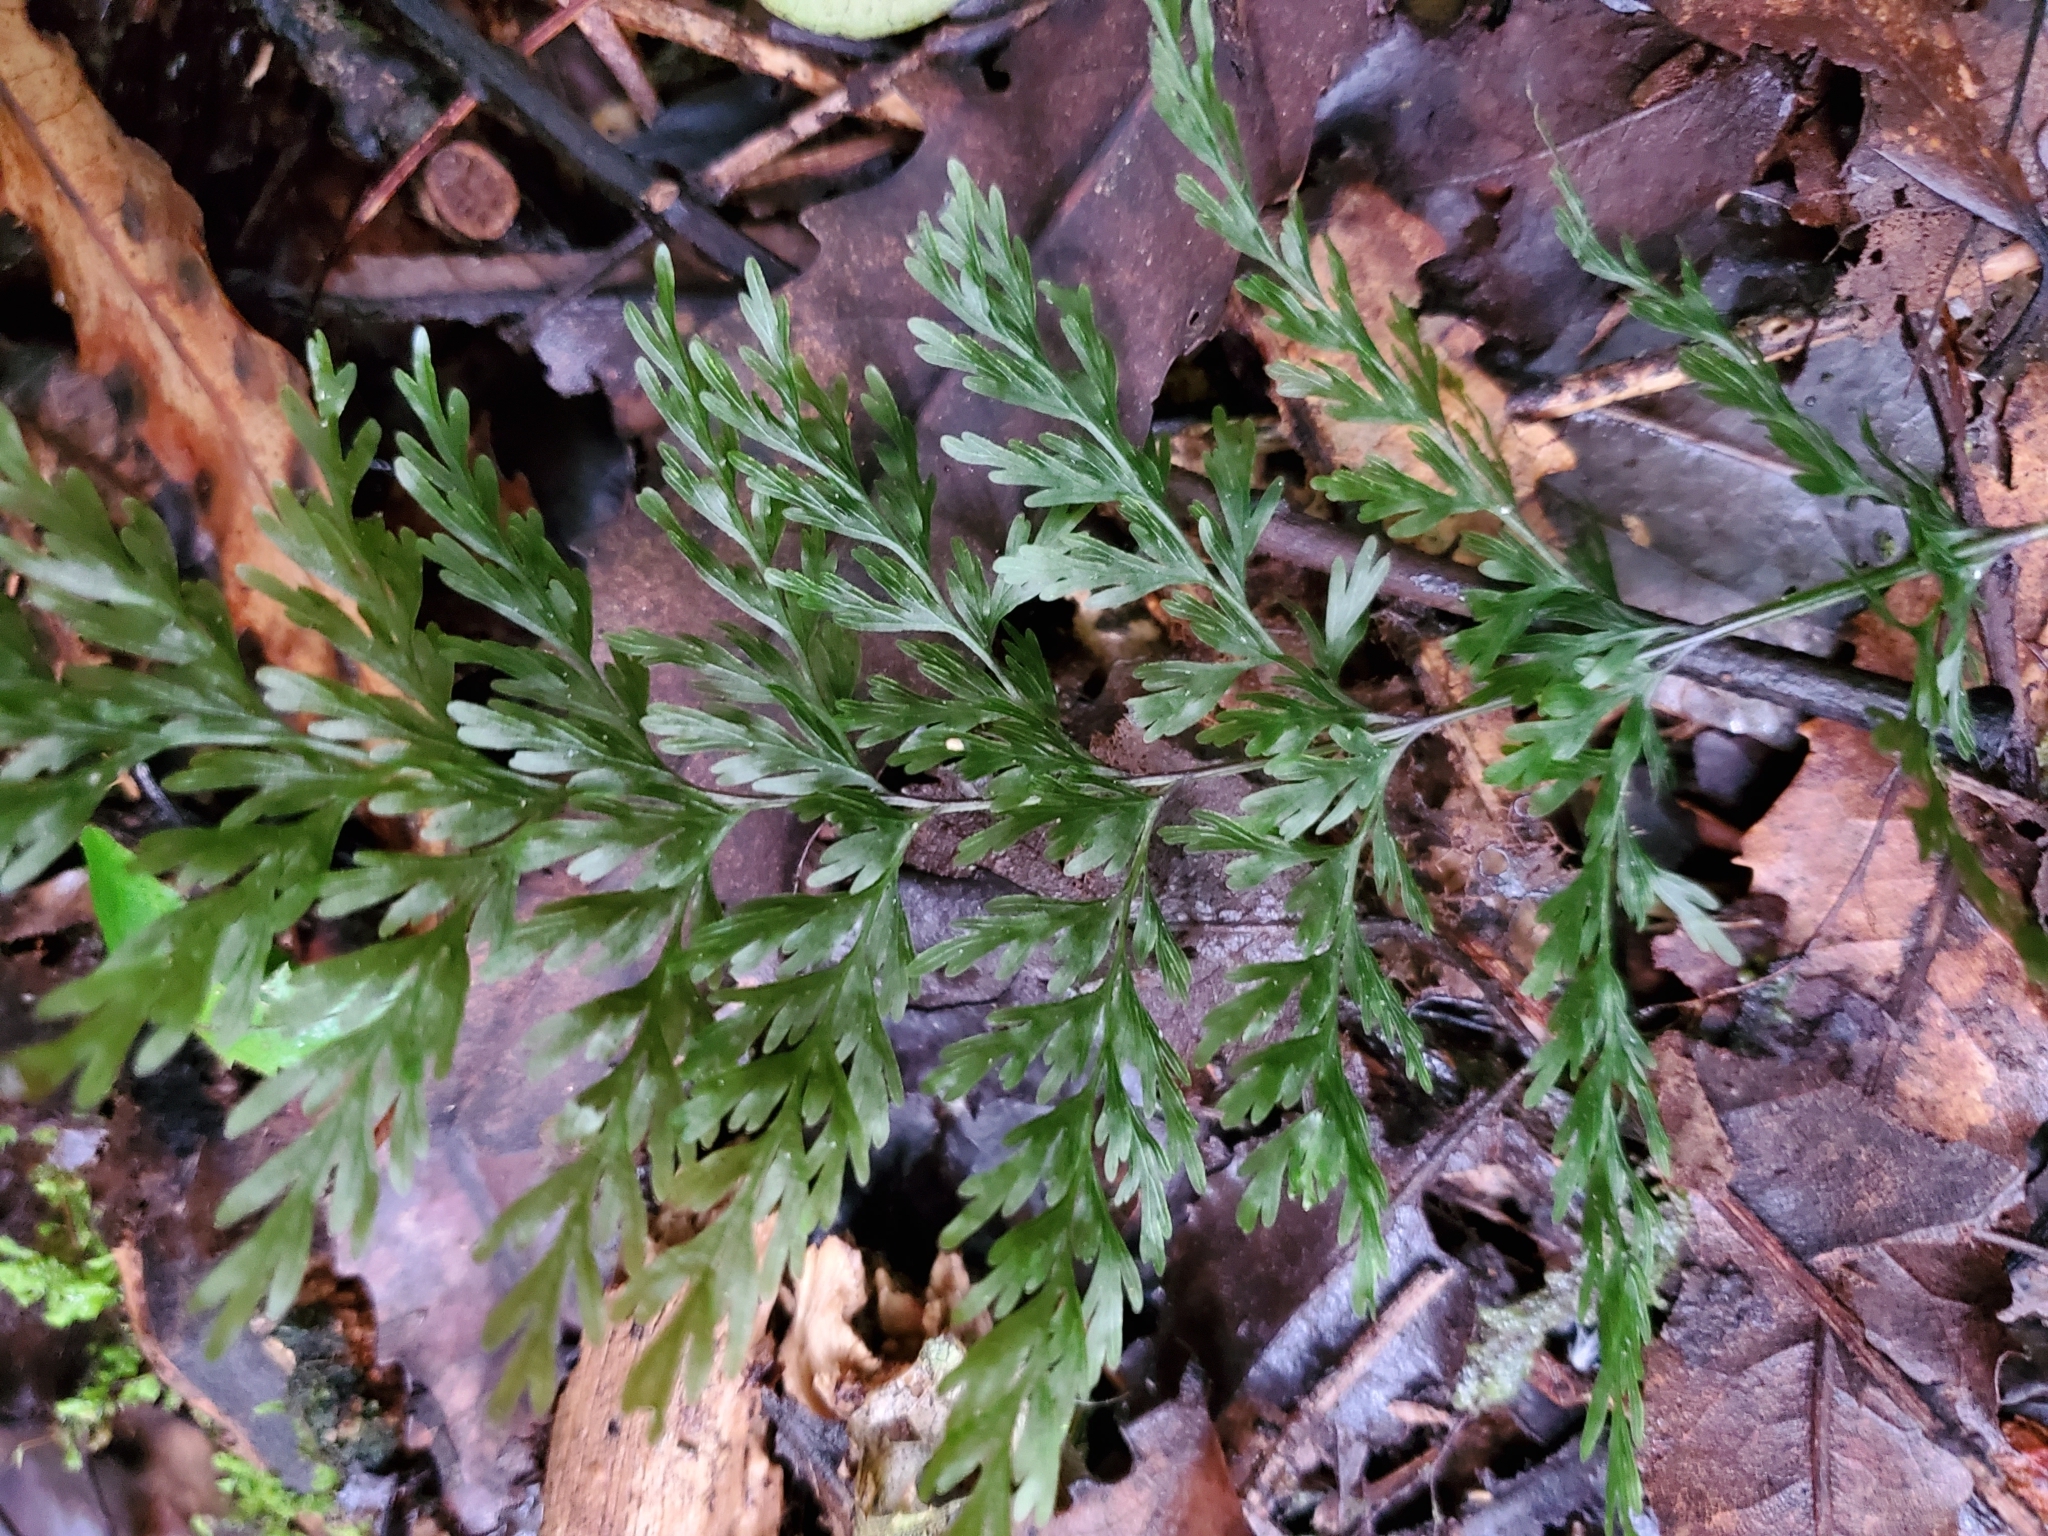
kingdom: Plantae
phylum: Tracheophyta
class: Polypodiopsida
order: Hymenophyllales
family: Hymenophyllaceae
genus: Hymenophyllum
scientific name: Hymenophyllum demissum
